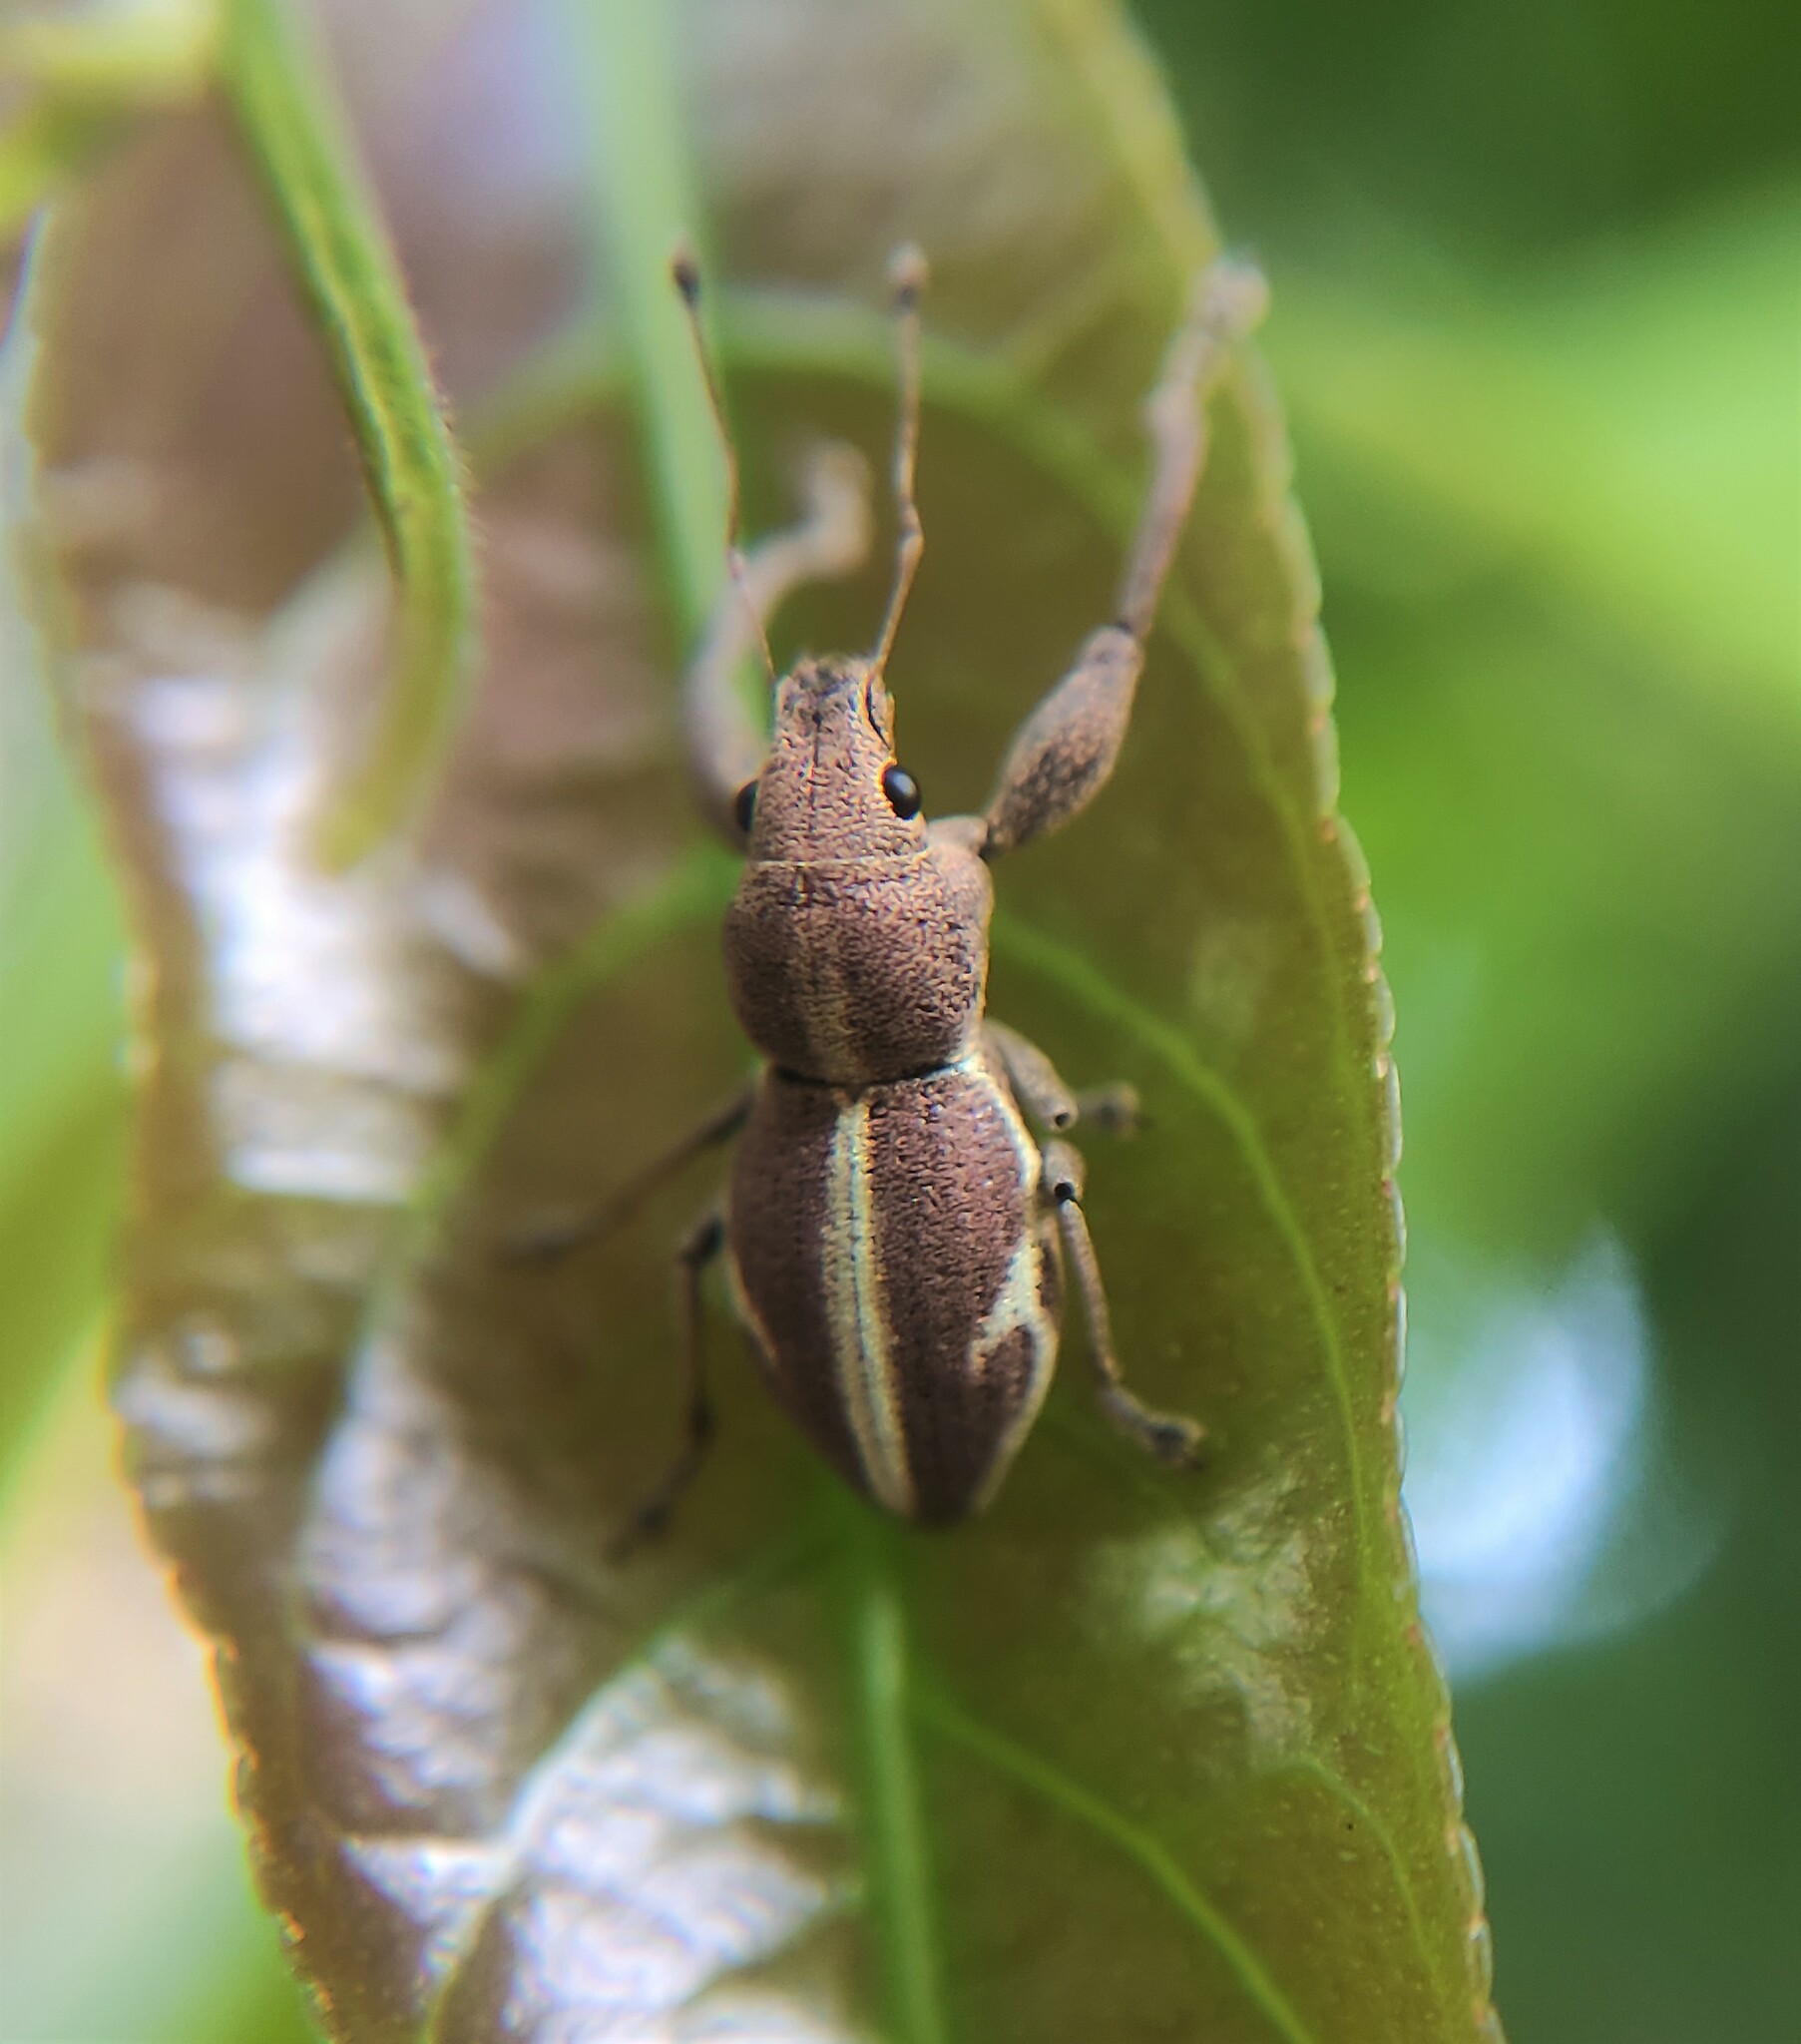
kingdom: Animalia
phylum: Arthropoda
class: Insecta
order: Coleoptera
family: Curculionidae
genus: Alceis
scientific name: Alceis curtus
